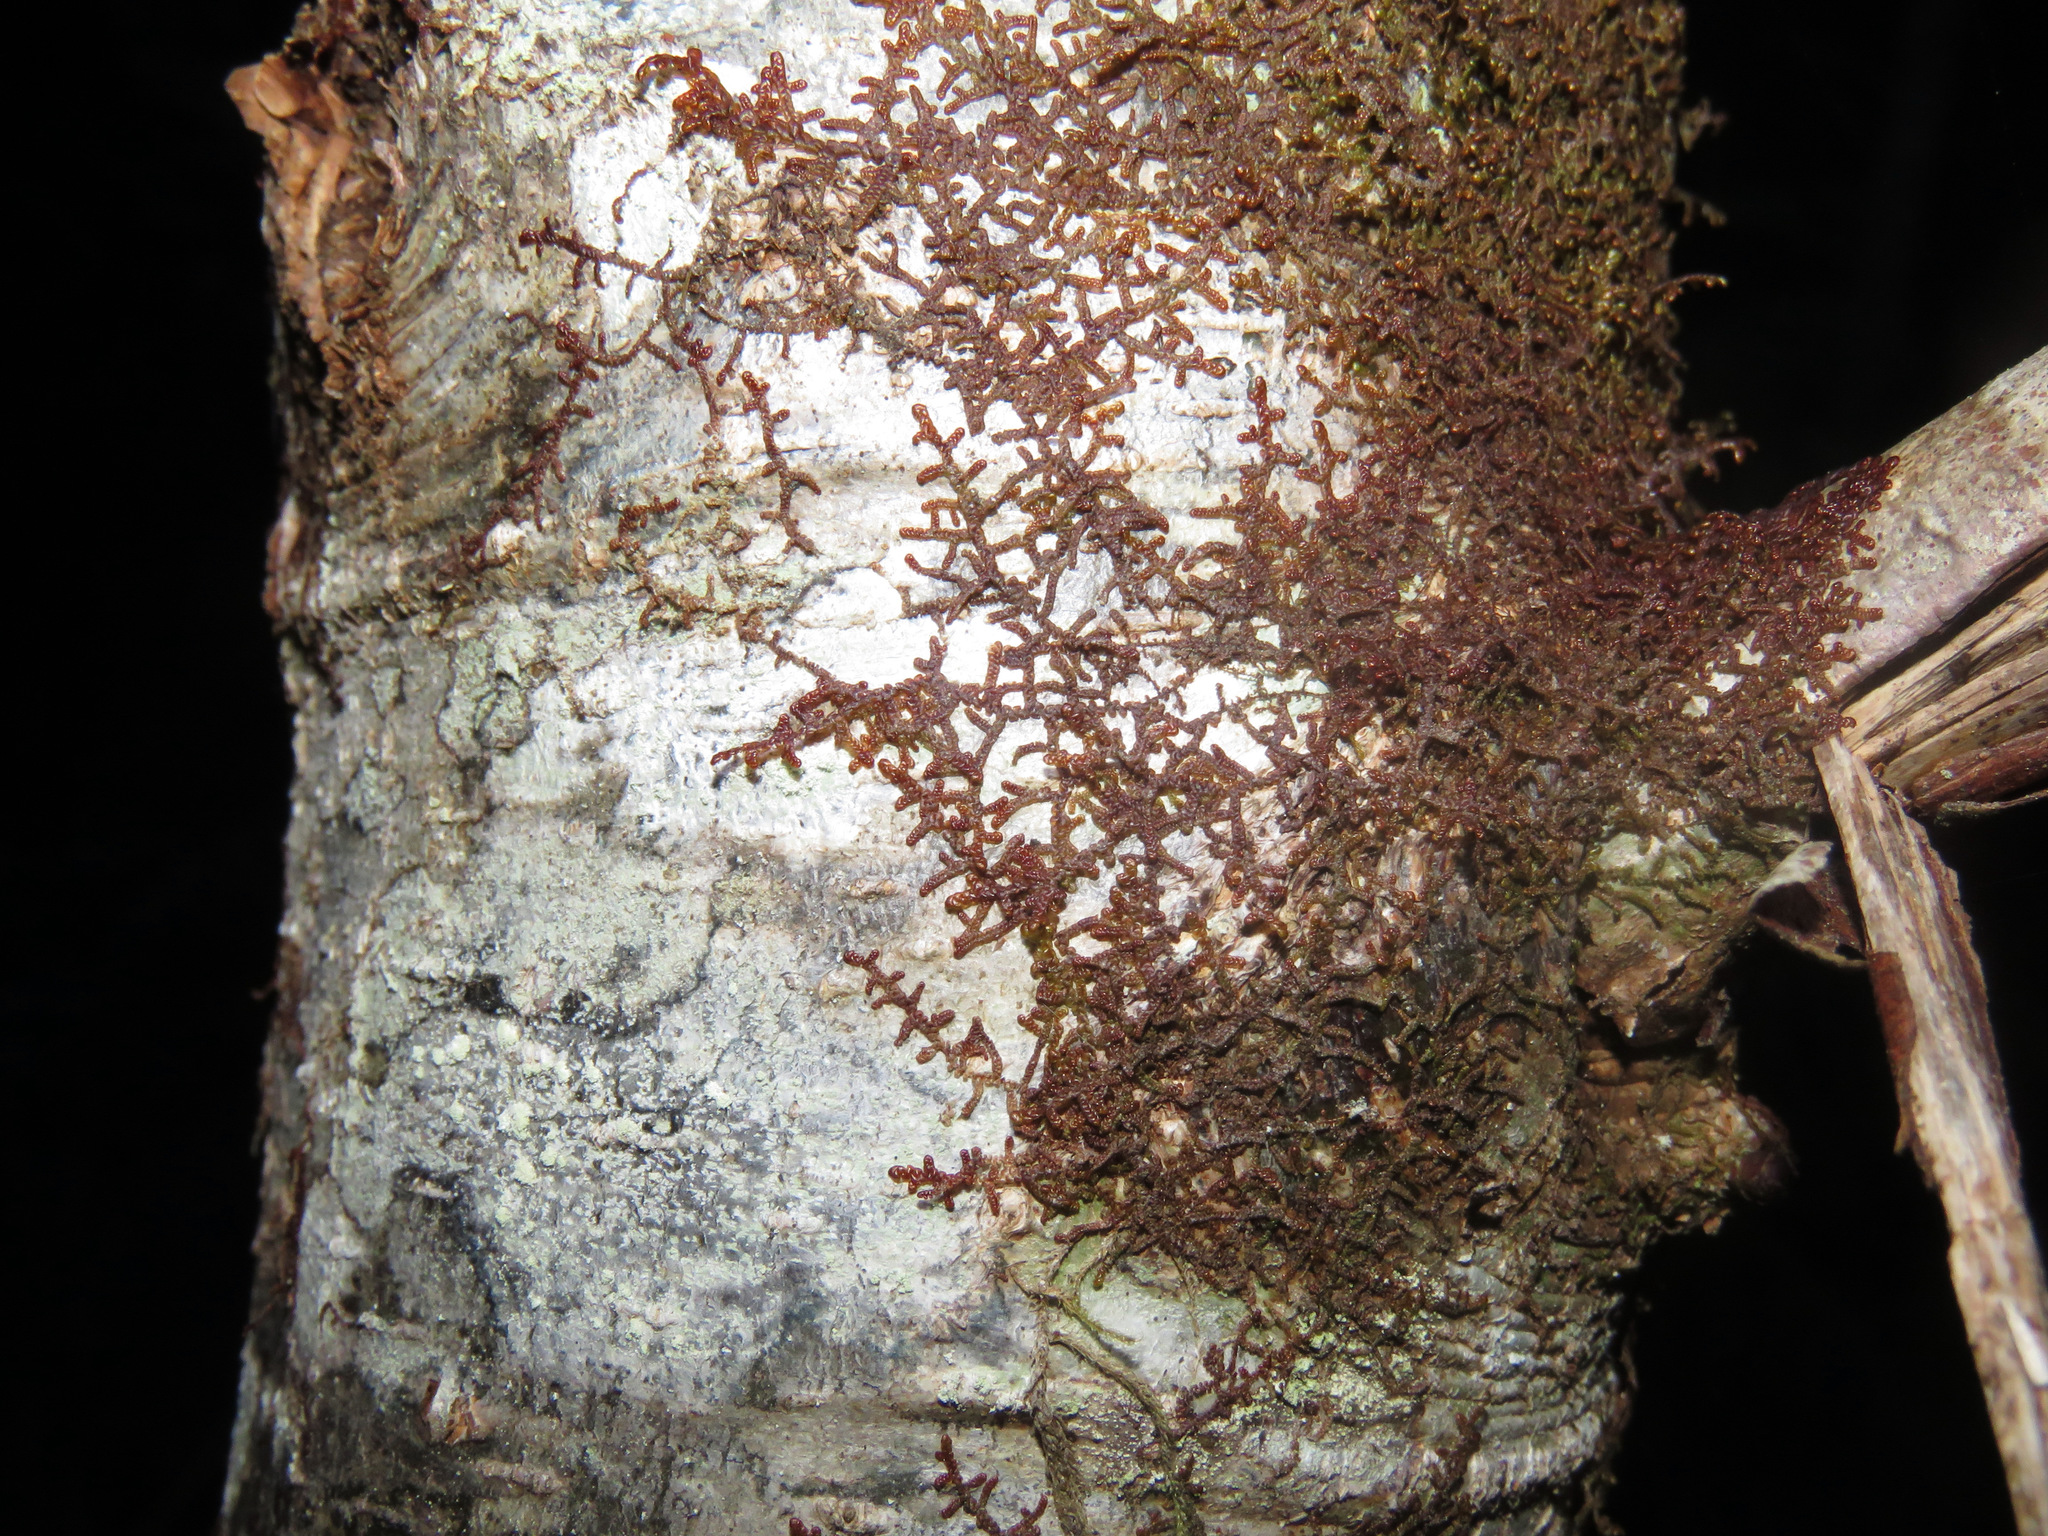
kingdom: Plantae
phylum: Marchantiophyta
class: Jungermanniopsida
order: Porellales
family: Frullaniaceae
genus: Frullania
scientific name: Frullania nisquallensis
